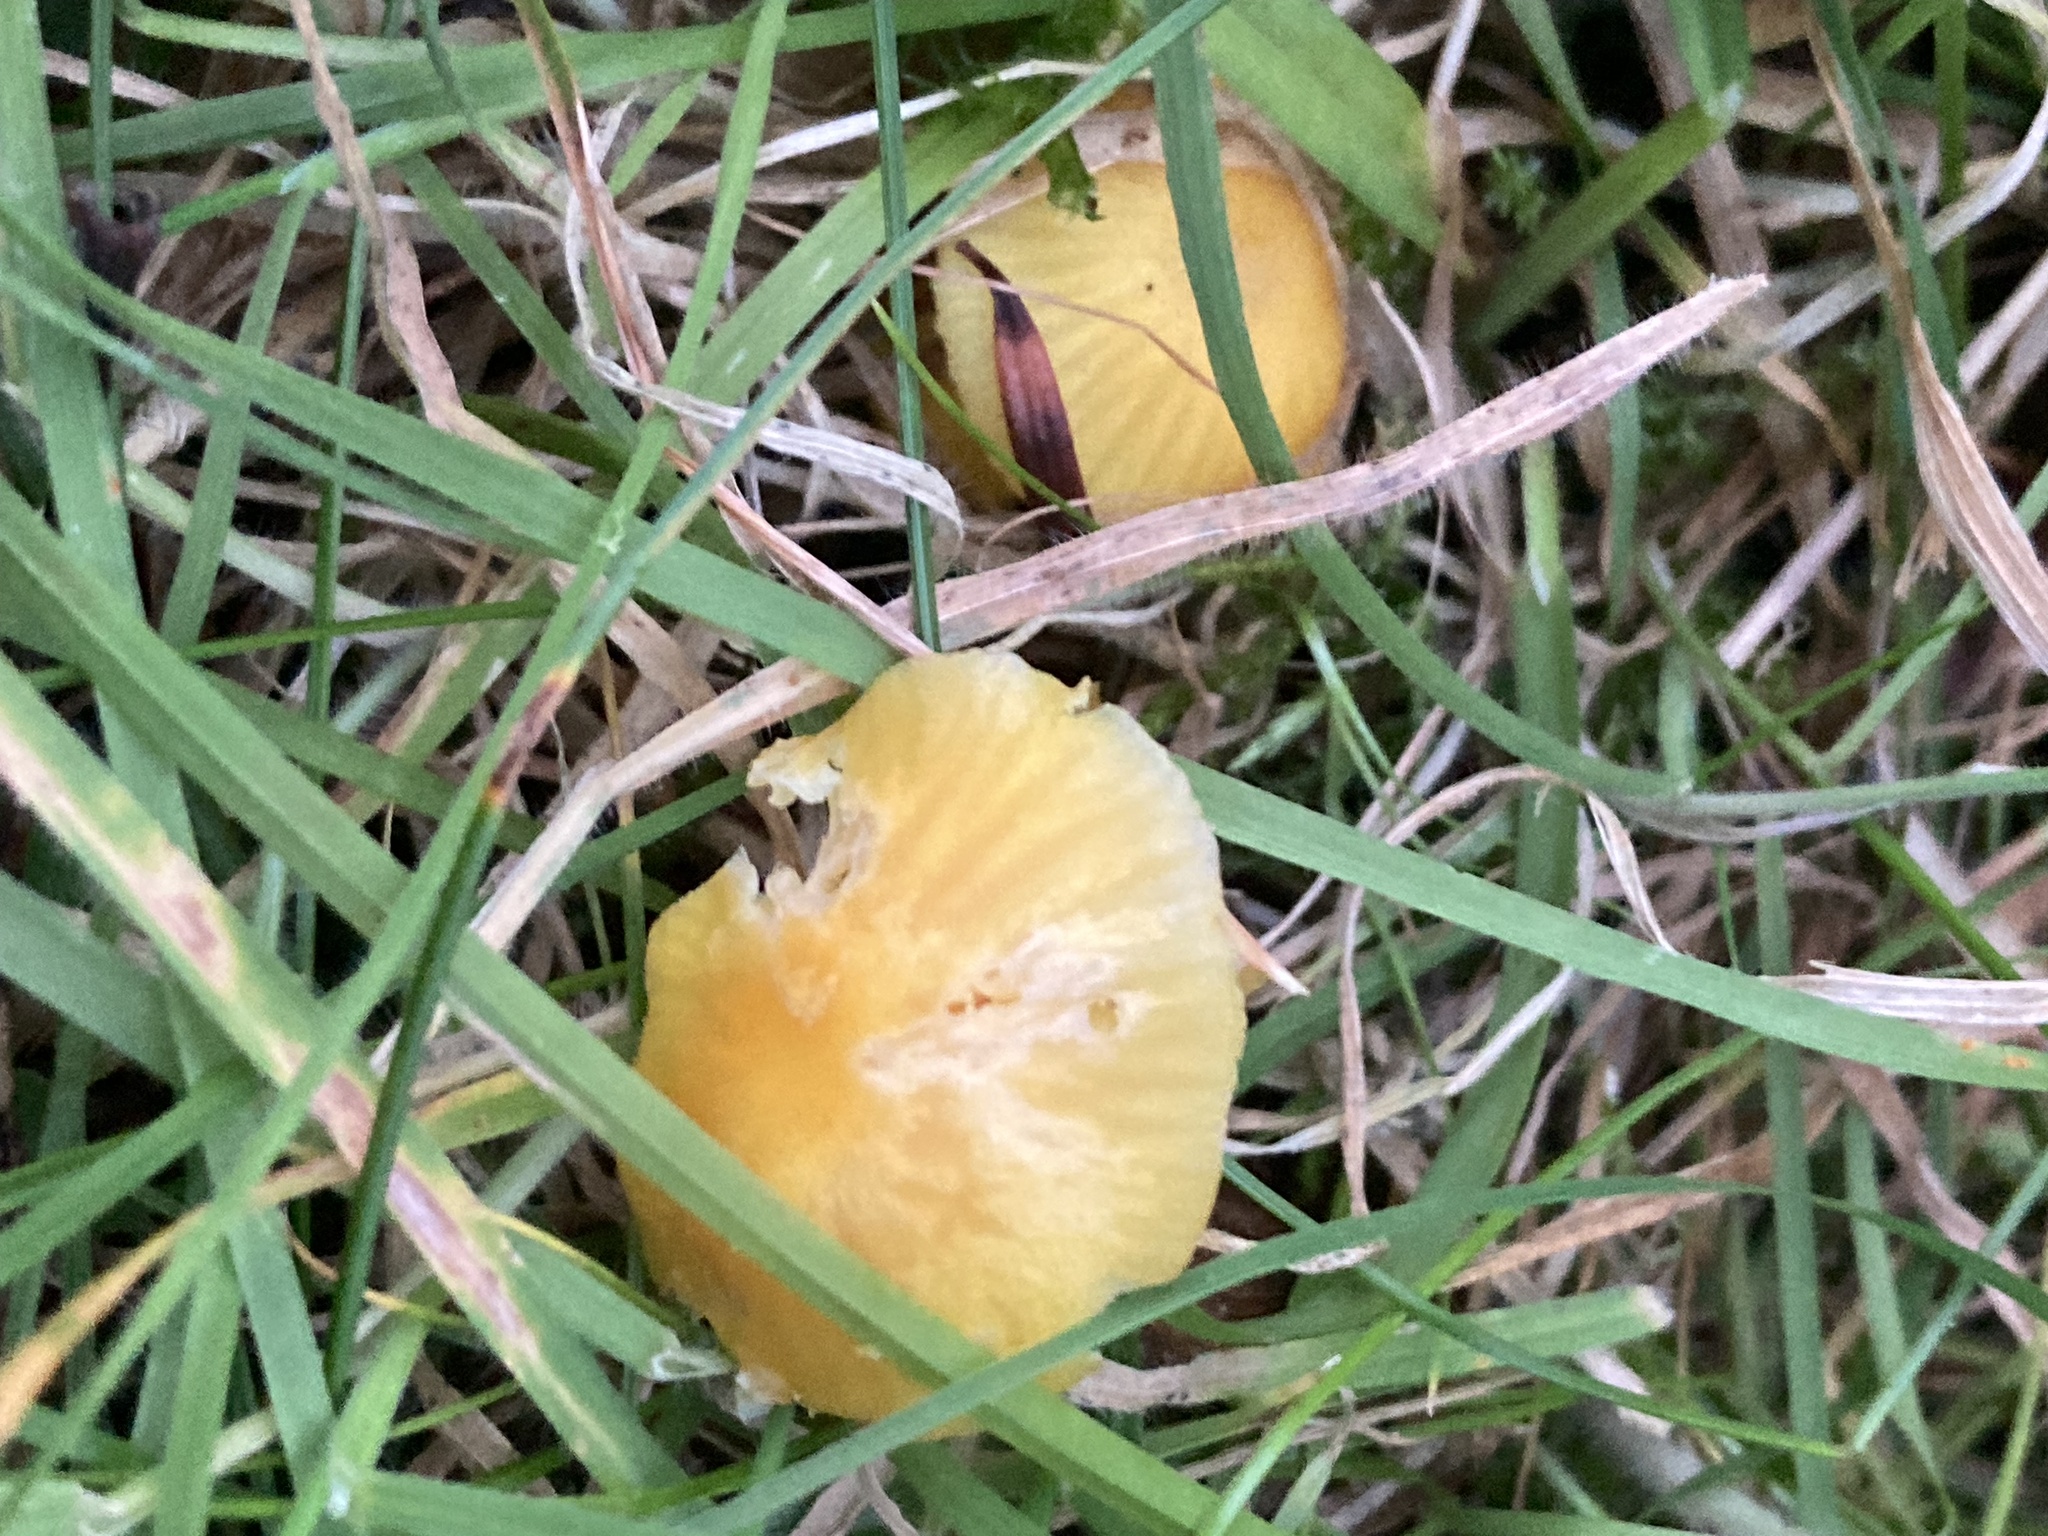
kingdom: Fungi
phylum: Basidiomycota
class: Agaricomycetes
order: Agaricales
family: Hygrophoraceae
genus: Hygrocybe
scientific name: Hygrocybe ceracea
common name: Butter waxcap
